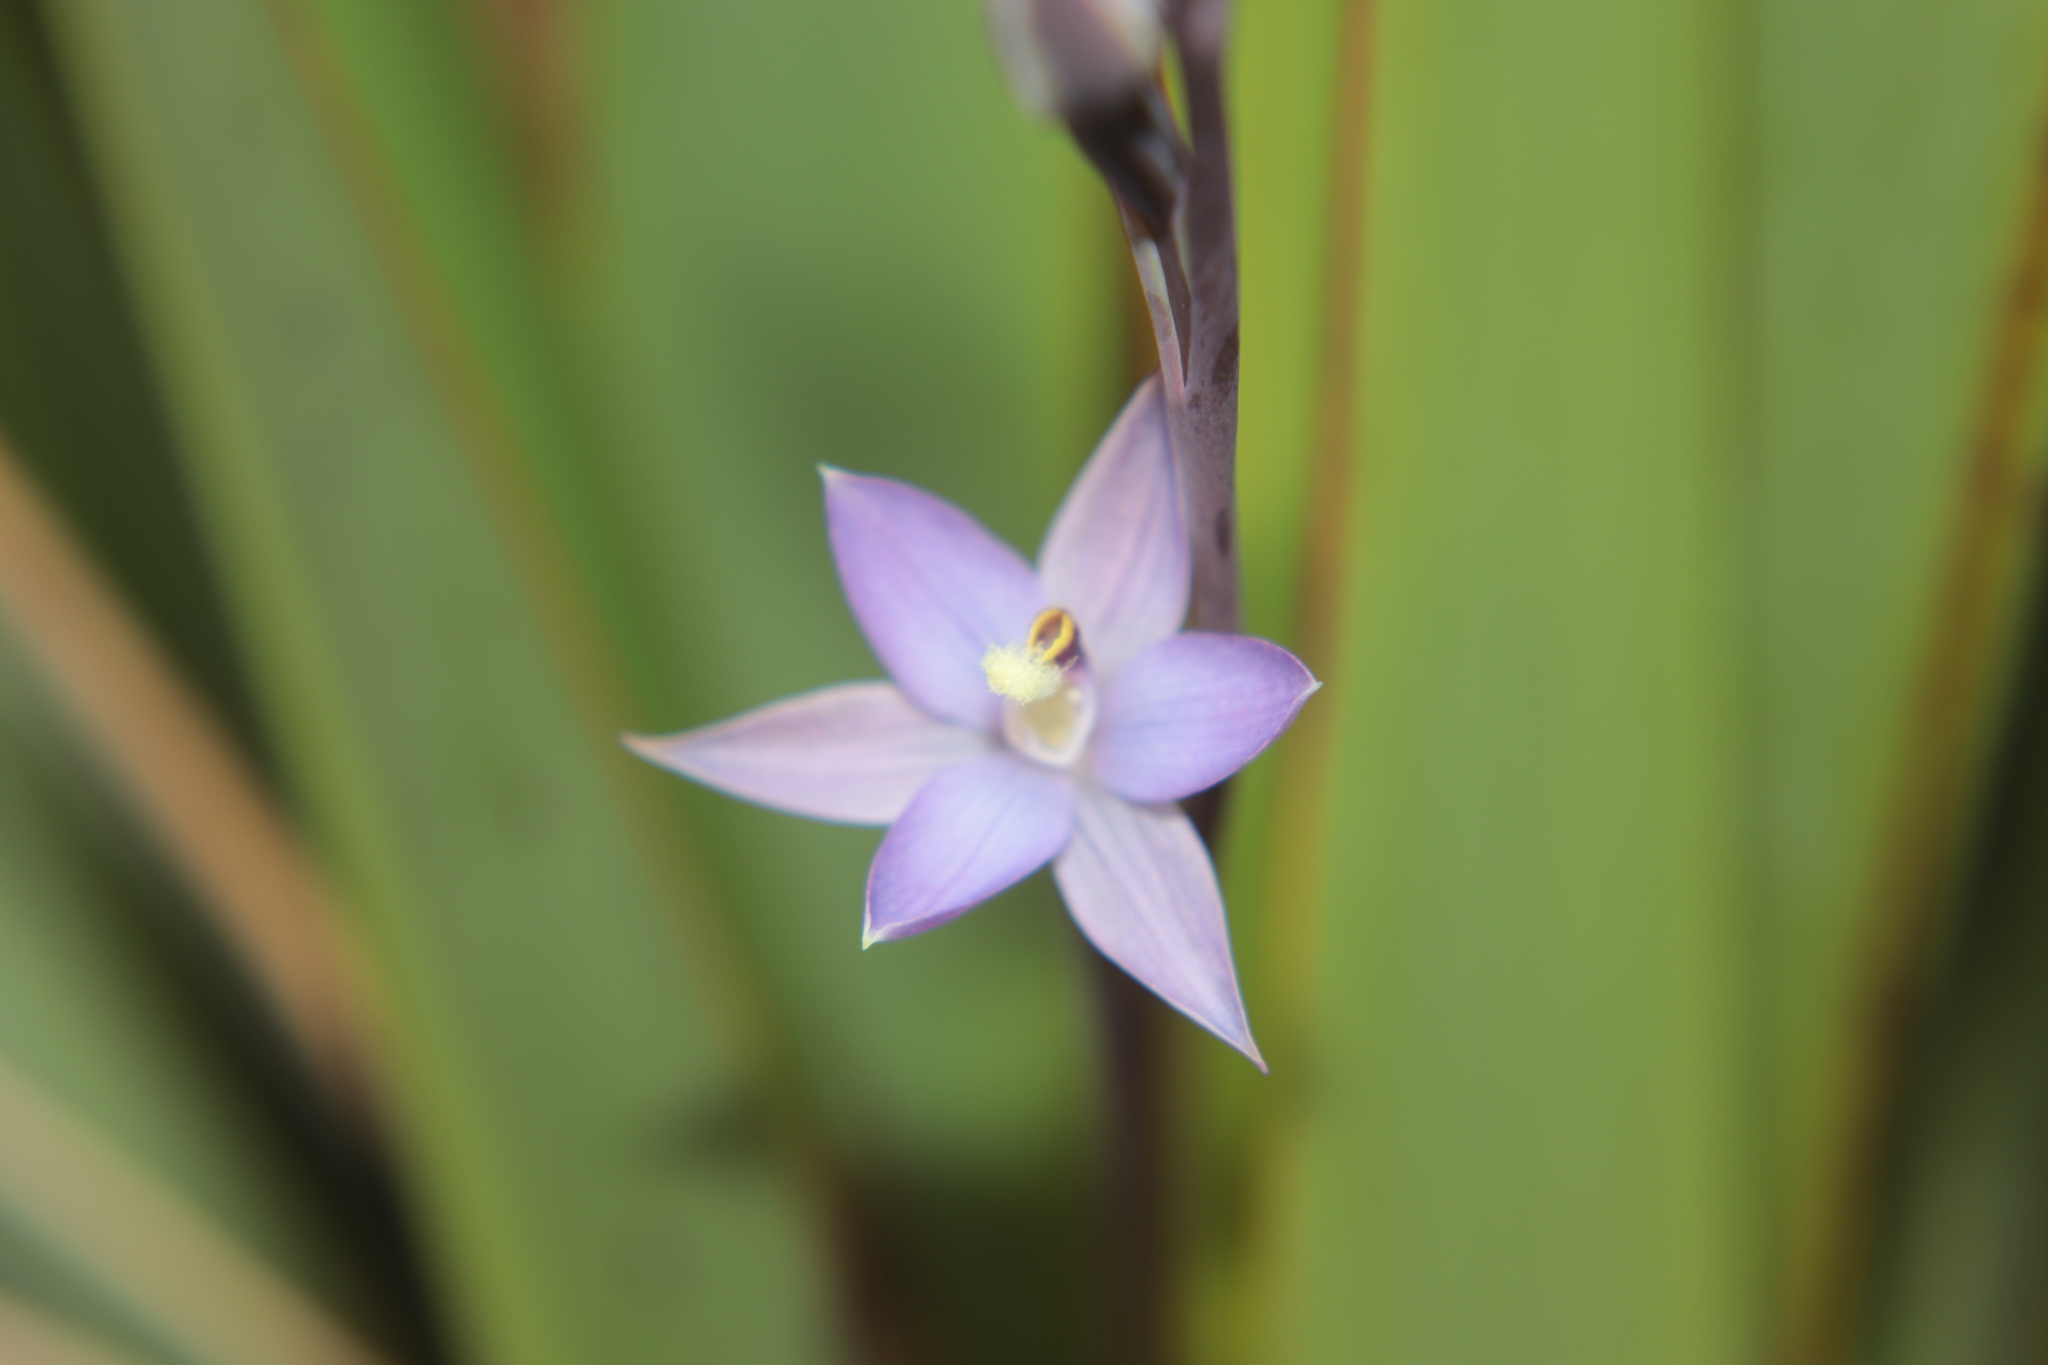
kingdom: Plantae
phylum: Tracheophyta
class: Liliopsida
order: Asparagales
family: Orchidaceae
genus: Thelymitra
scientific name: Thelymitra hatchii
